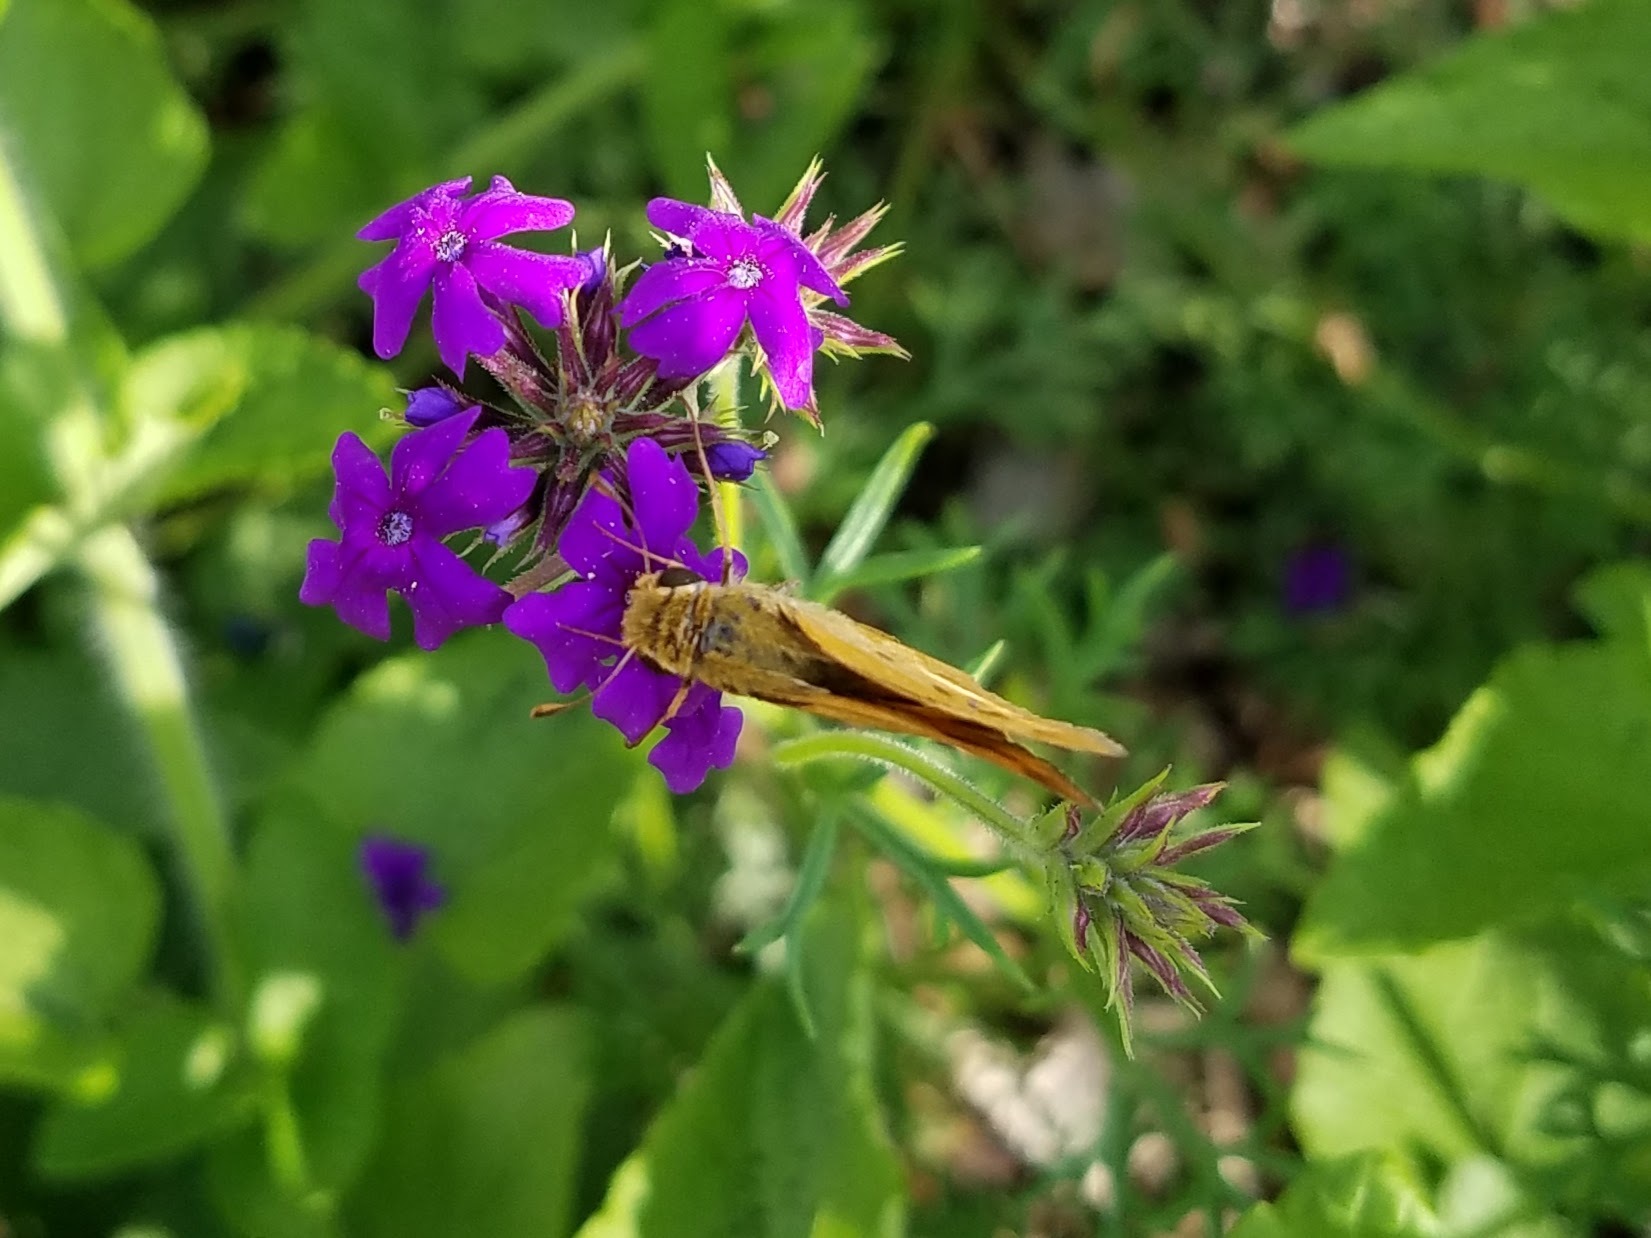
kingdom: Animalia
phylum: Arthropoda
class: Insecta
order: Lepidoptera
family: Hesperiidae
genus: Hylephila
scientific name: Hylephila phyleus
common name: Fiery skipper
